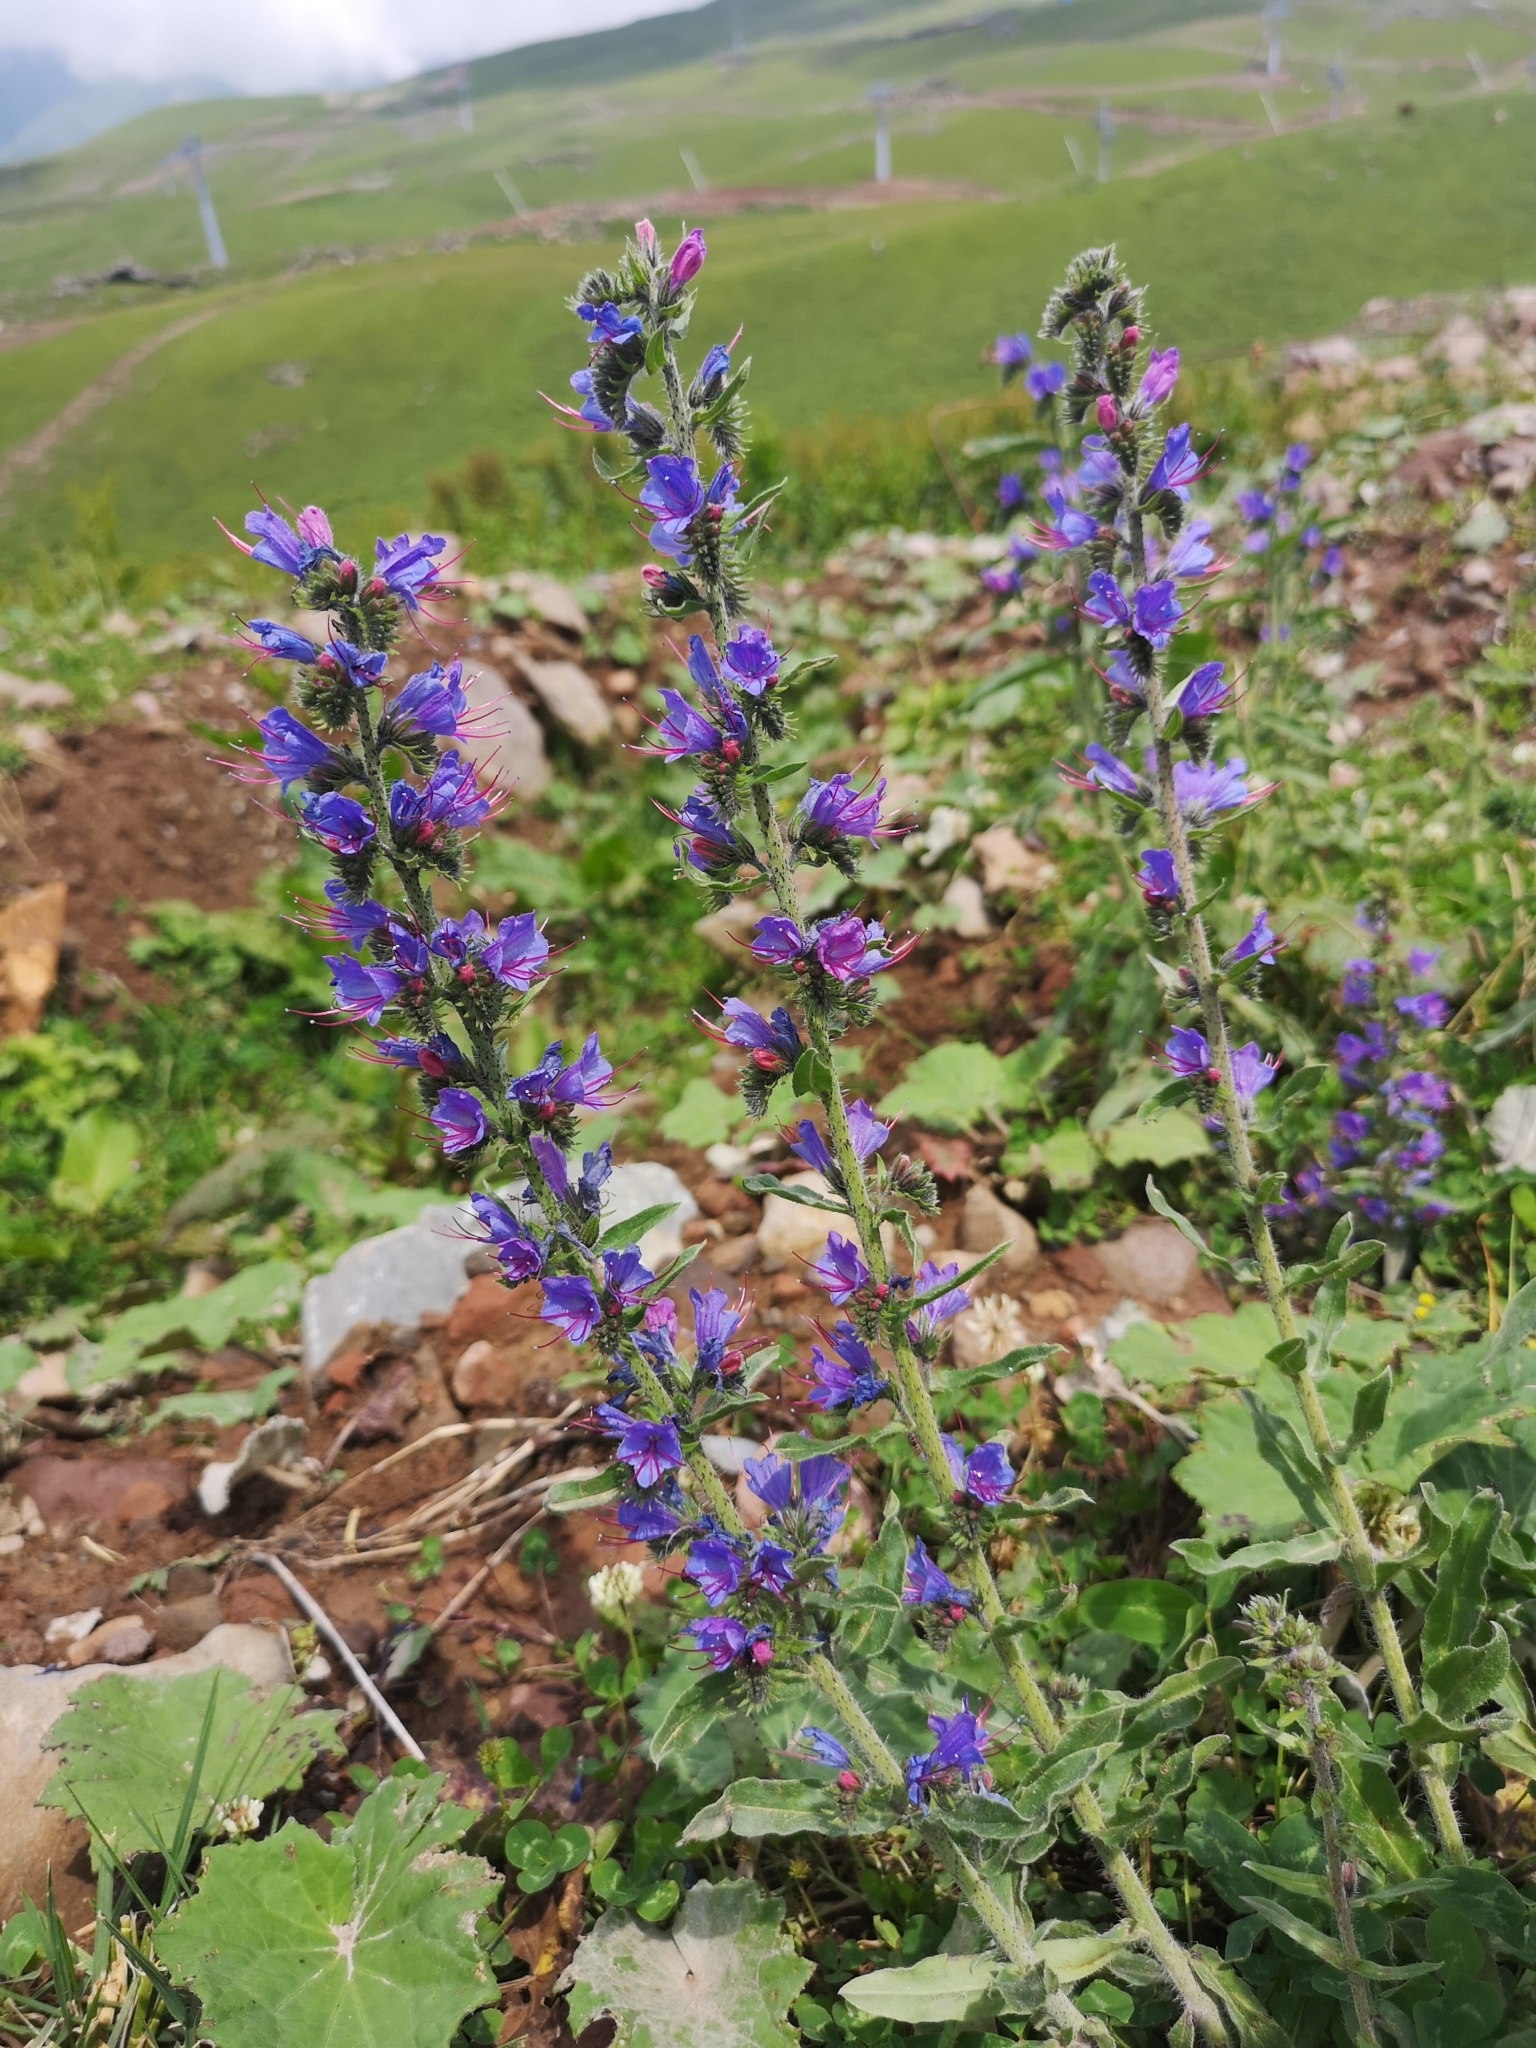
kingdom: Plantae
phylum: Tracheophyta
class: Magnoliopsida
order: Boraginales
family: Boraginaceae
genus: Echium
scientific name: Echium vulgare
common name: Common viper's bugloss
